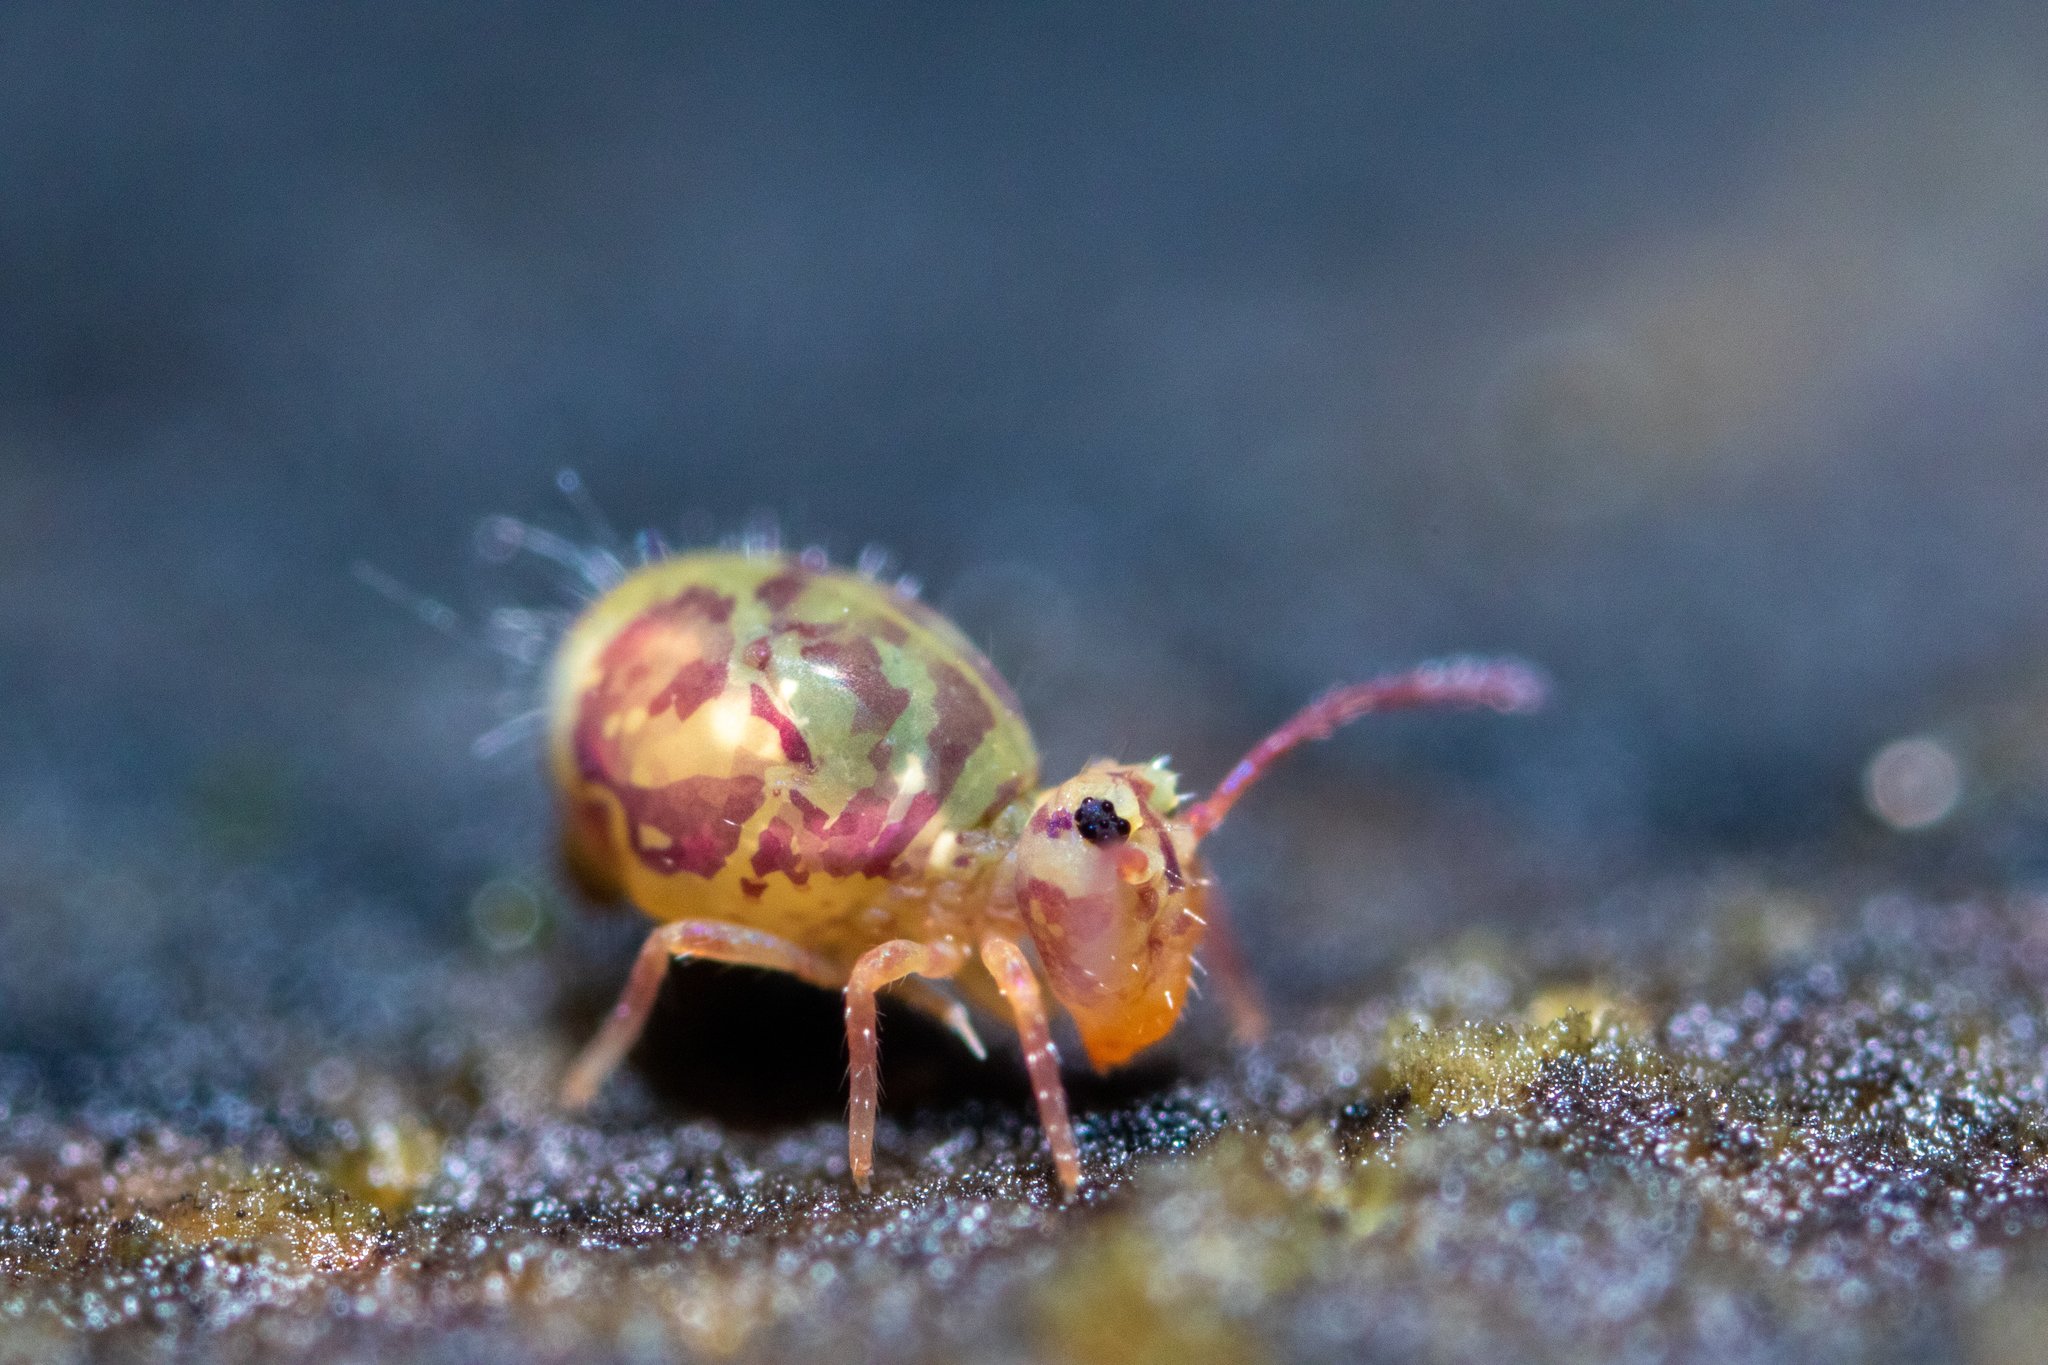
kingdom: Animalia
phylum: Arthropoda
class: Collembola
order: Symphypleona
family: Dicyrtomidae
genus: Dicyrtomina
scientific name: Dicyrtomina ornata
